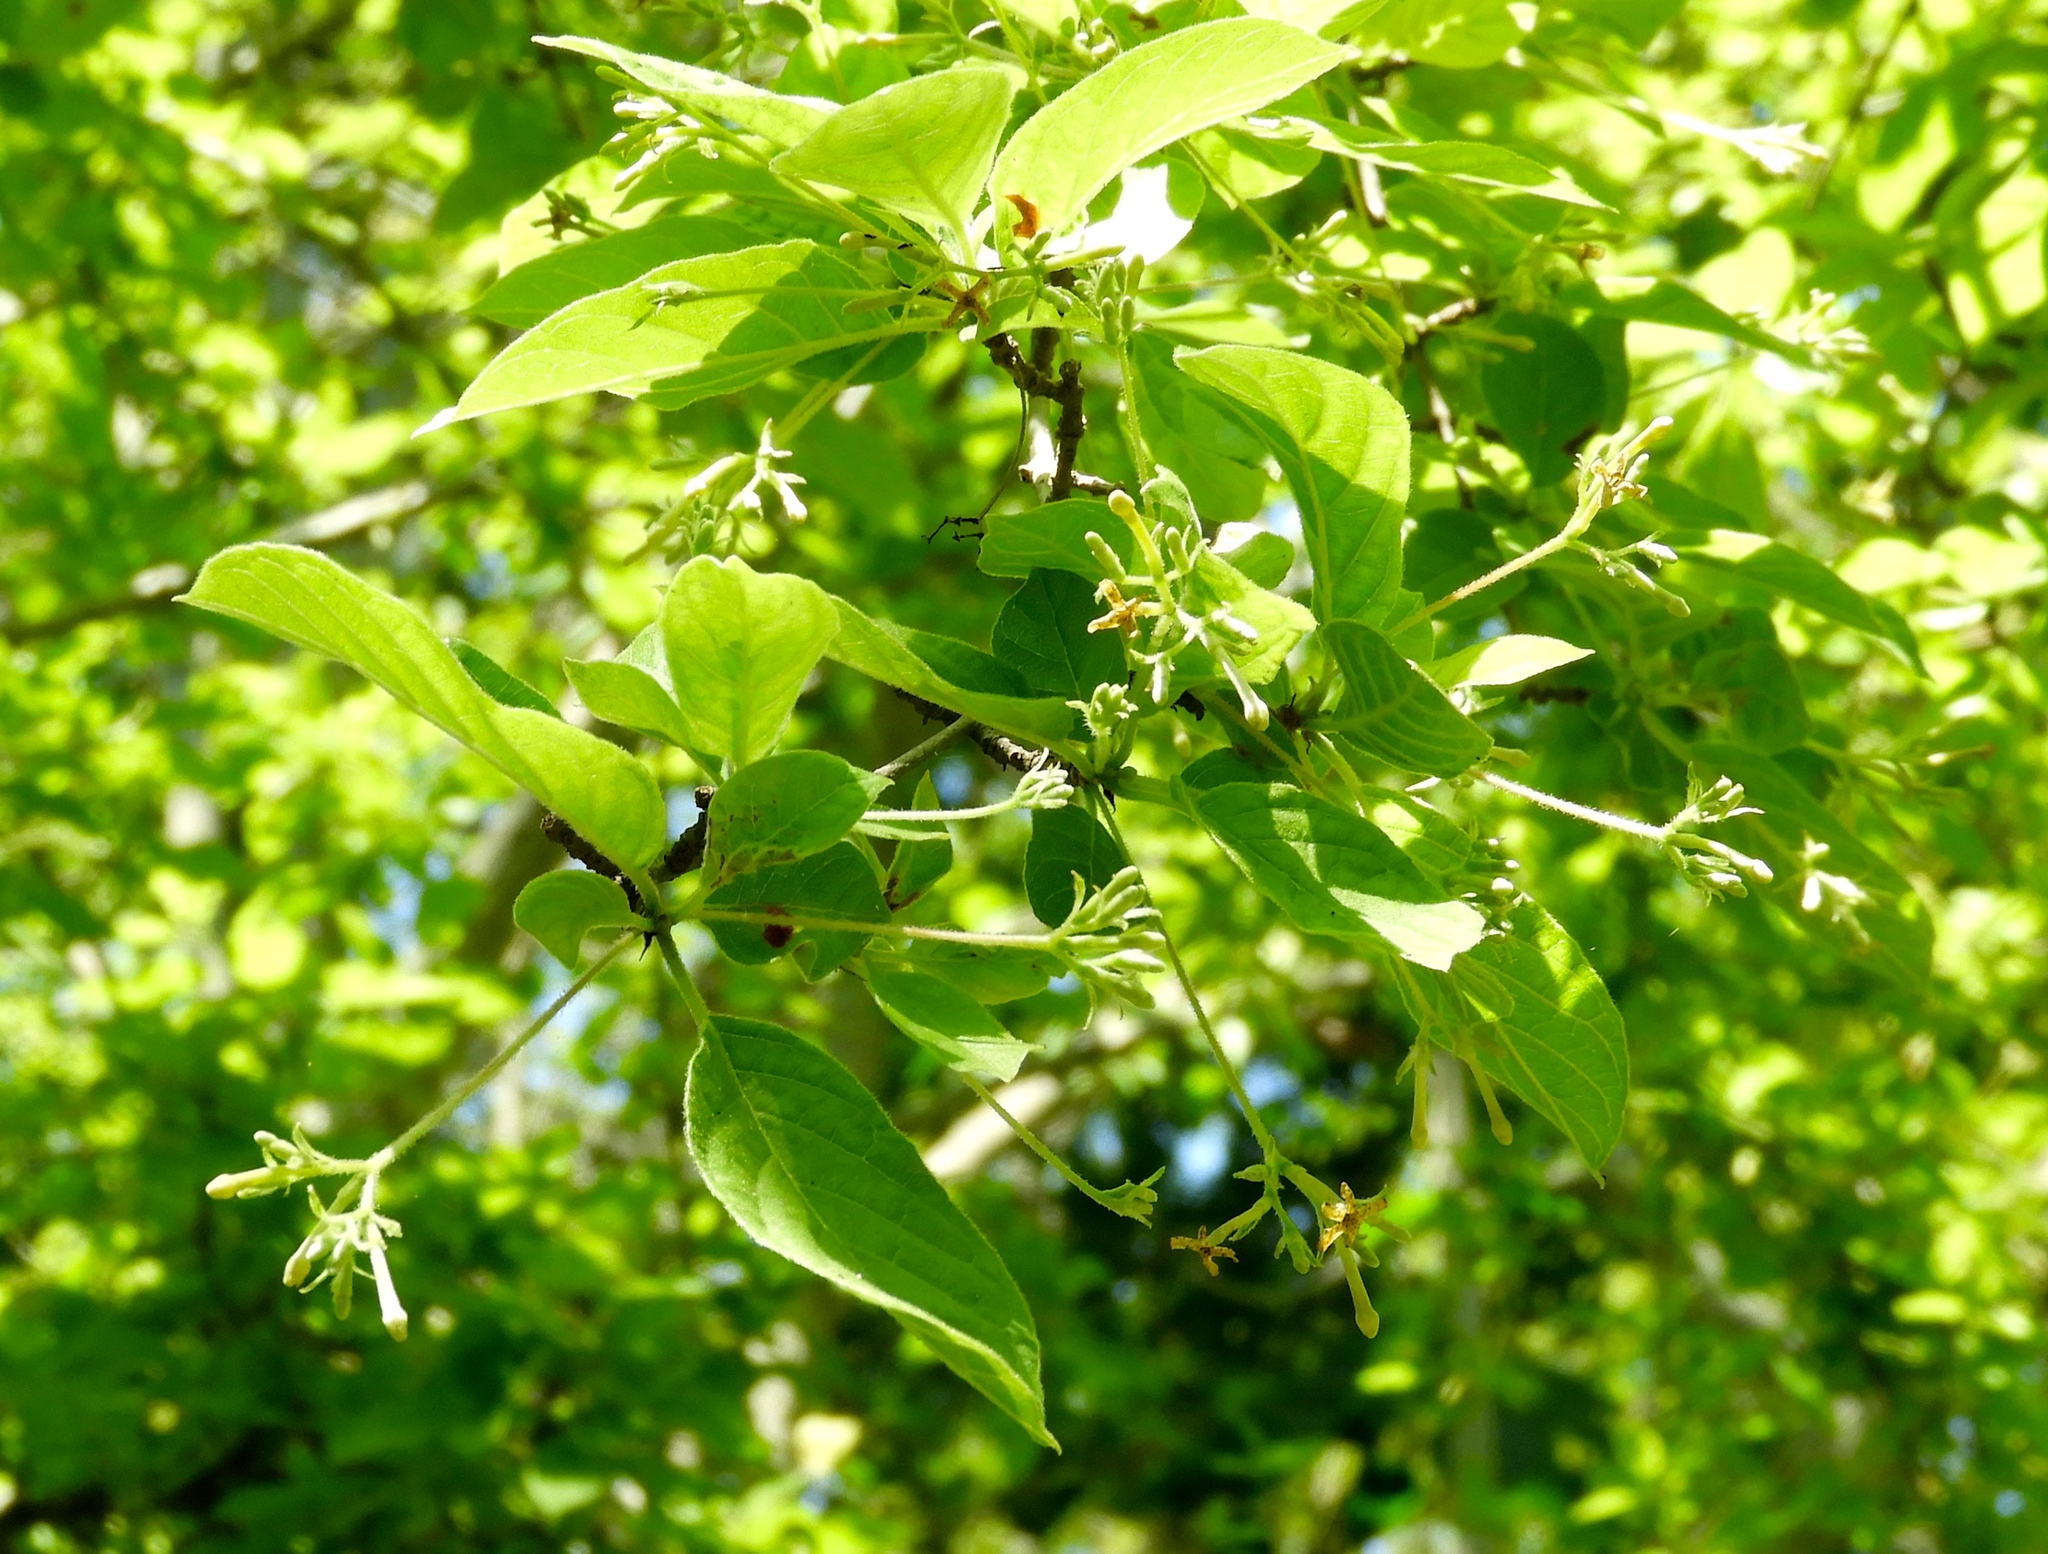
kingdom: Plantae
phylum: Tracheophyta
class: Magnoliopsida
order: Gentianales
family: Rubiaceae
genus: Guettarda
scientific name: Guettarda elliptica
